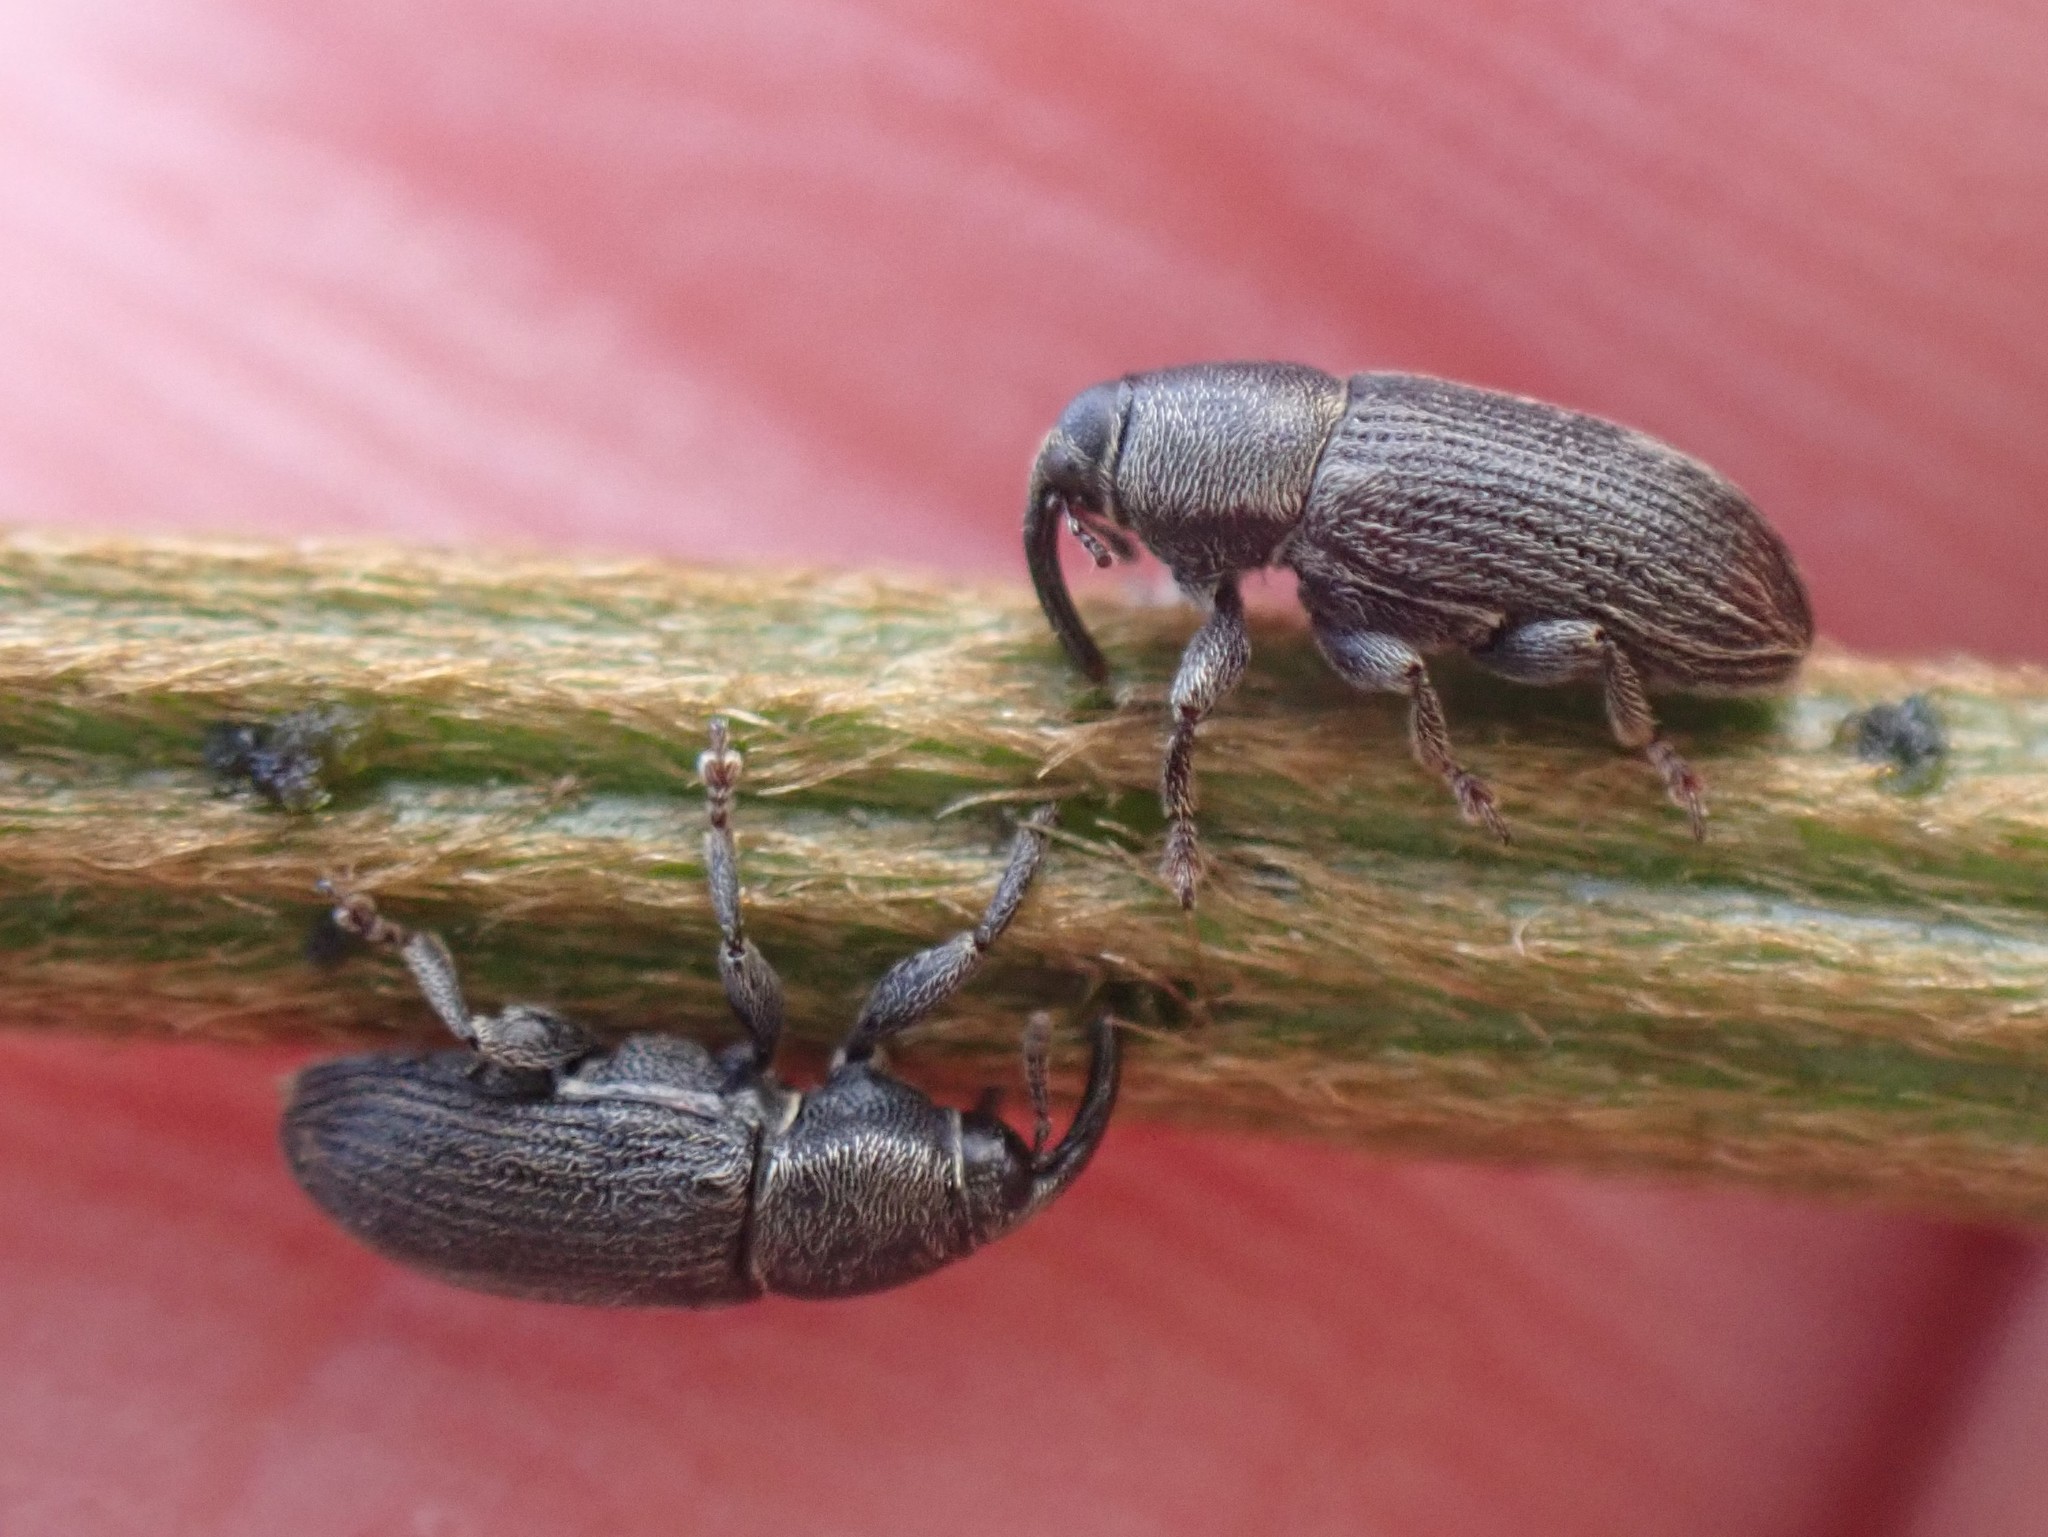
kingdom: Animalia
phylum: Arthropoda
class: Insecta
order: Coleoptera
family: Curculionidae
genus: Mecinus
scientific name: Mecinus pyraster
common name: Weevil
